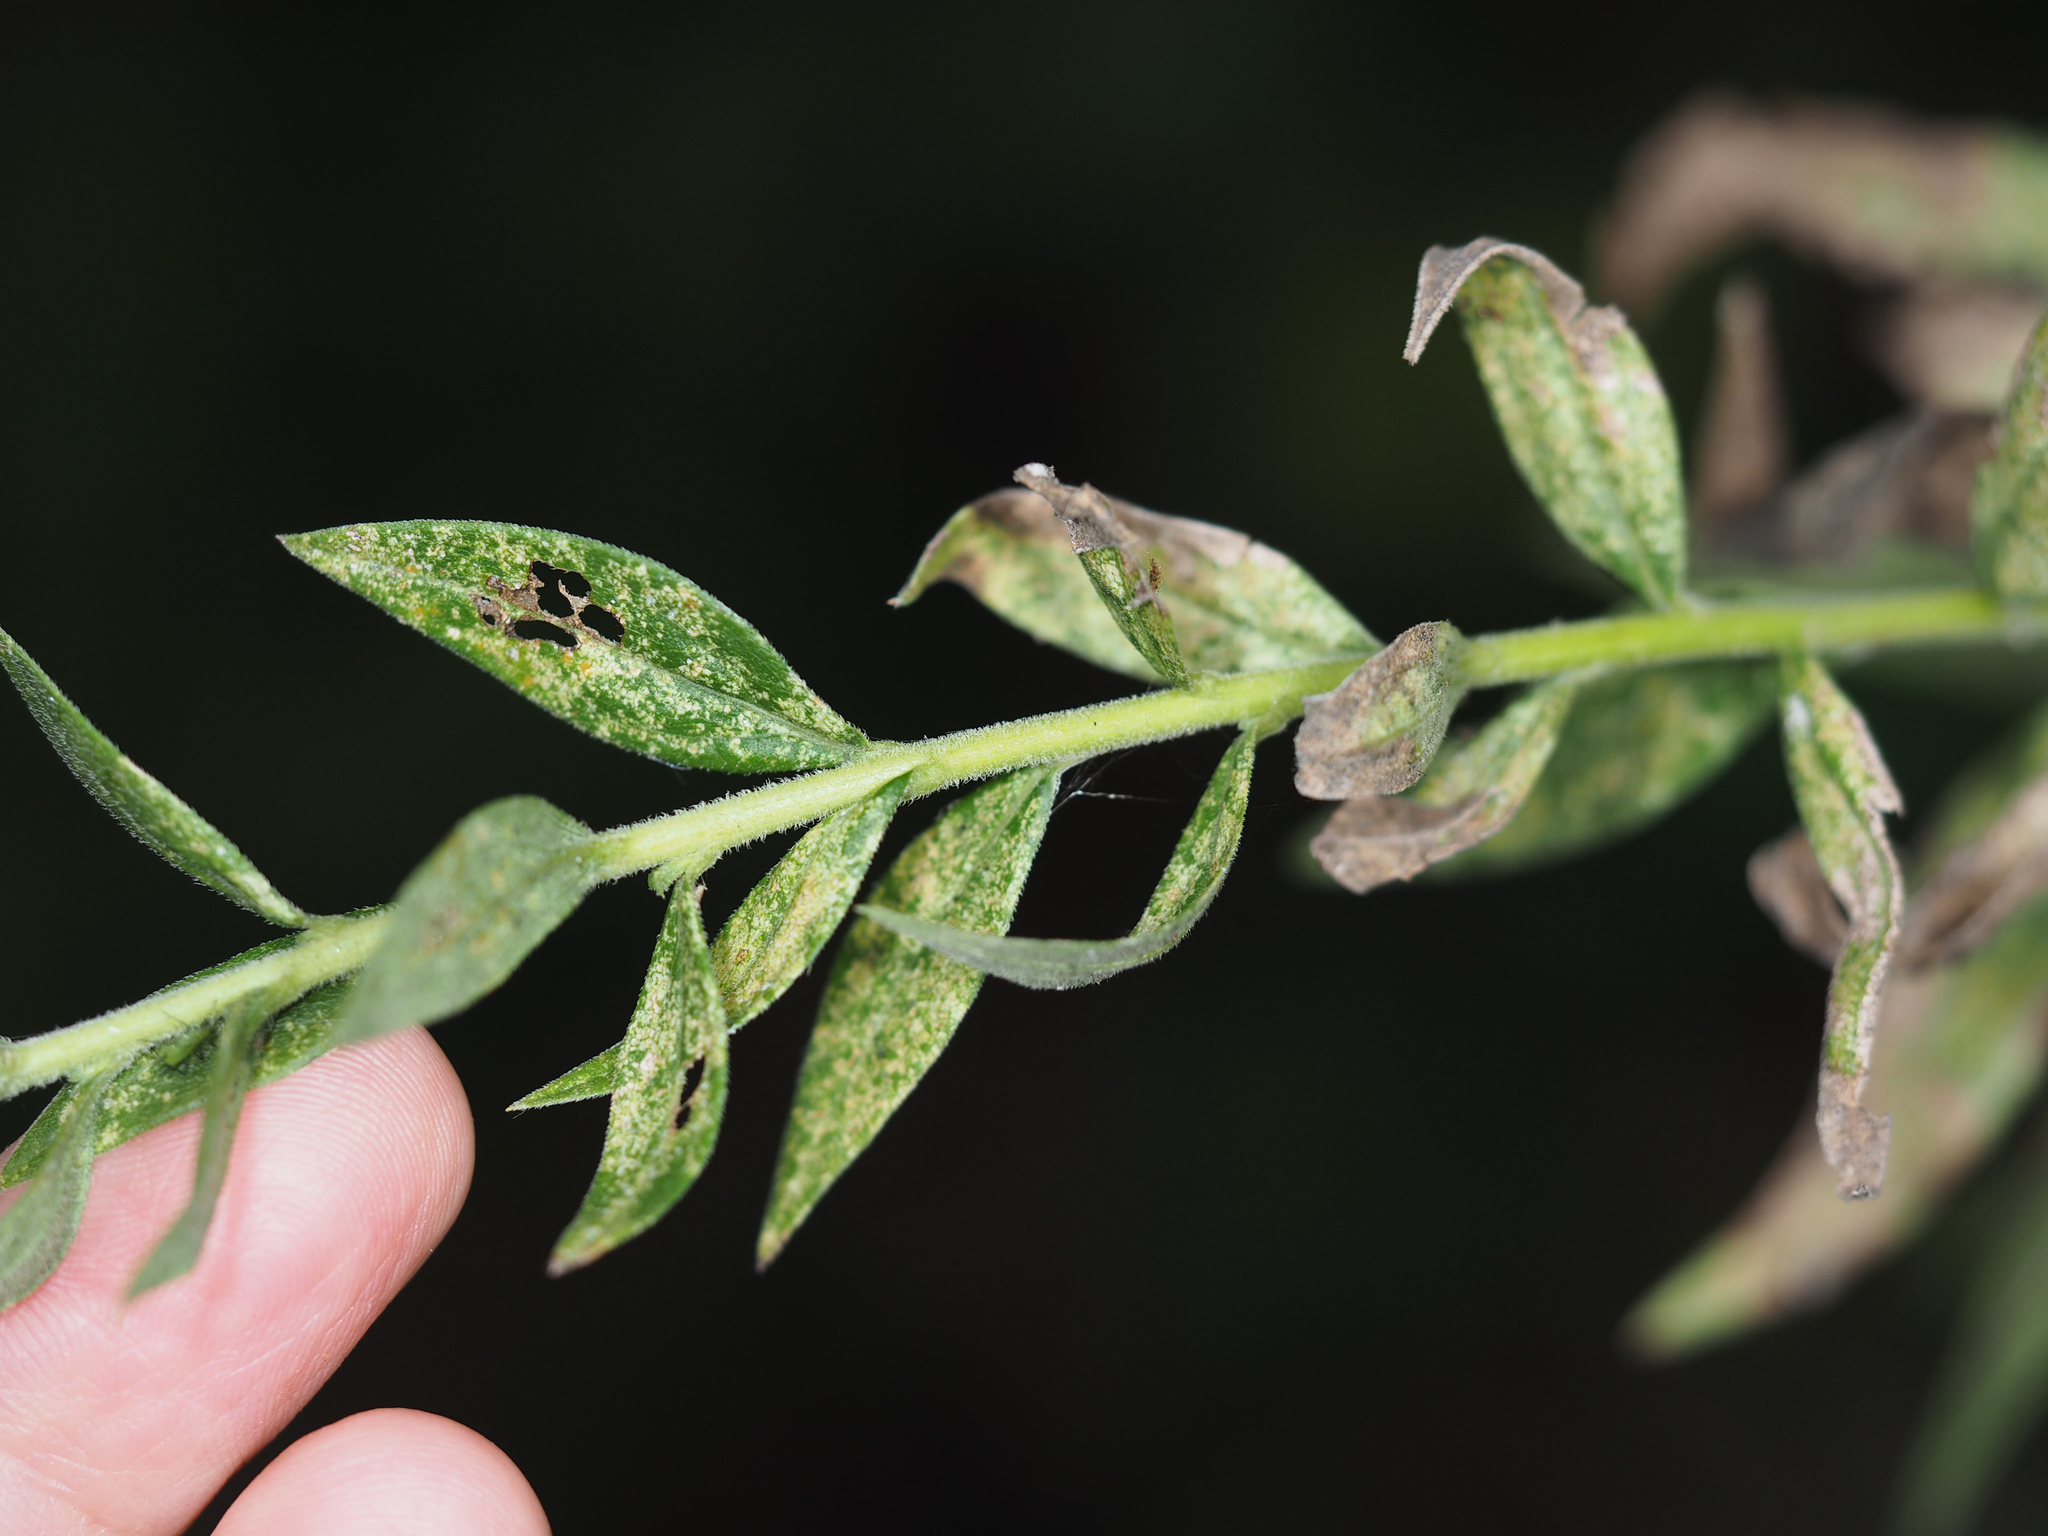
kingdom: Plantae
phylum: Tracheophyta
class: Magnoliopsida
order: Asterales
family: Asteraceae
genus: Solidago
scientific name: Solidago altissima
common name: Late goldenrod
